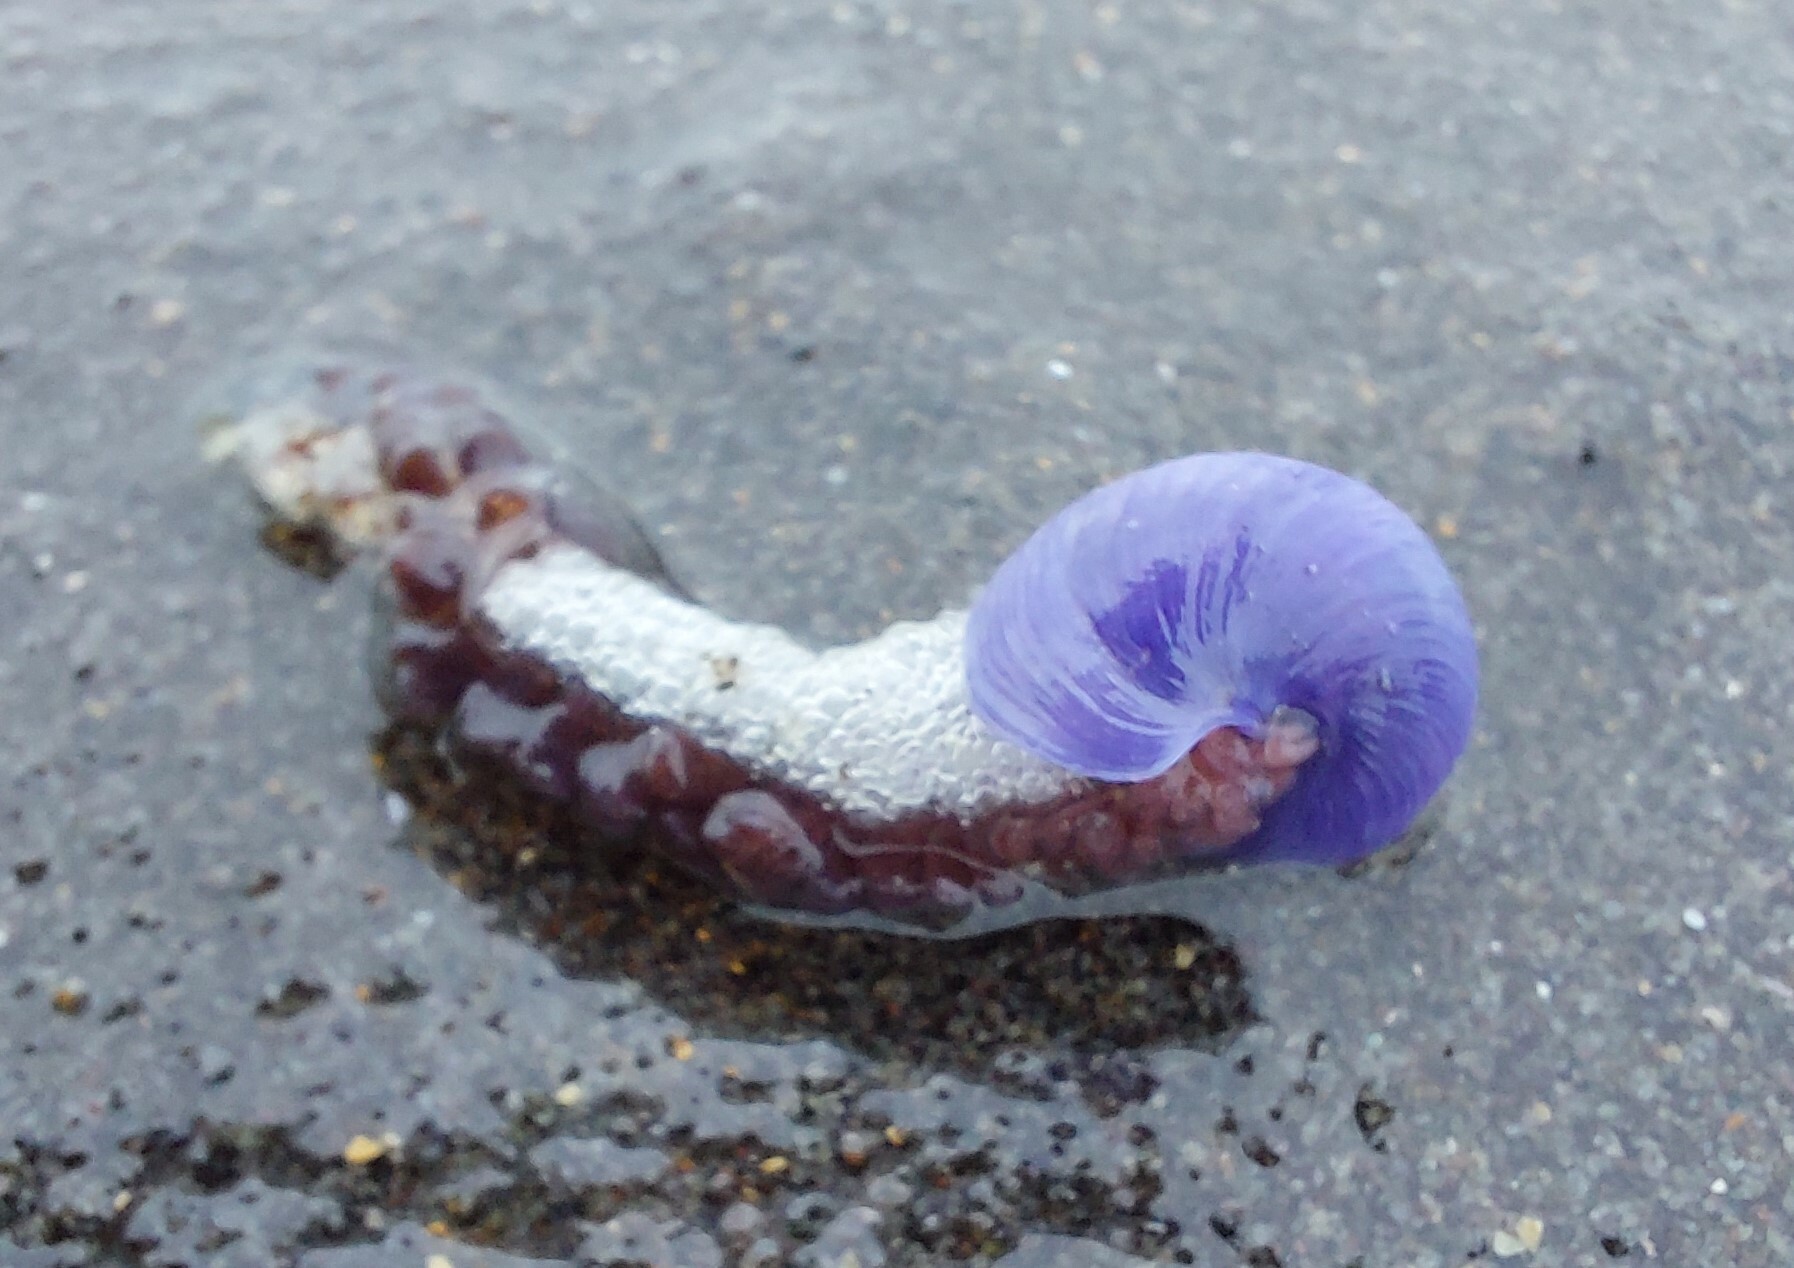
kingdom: Animalia
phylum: Mollusca
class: Gastropoda
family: Epitoniidae
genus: Janthina
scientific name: Janthina exigua
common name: Dwarf janthina
